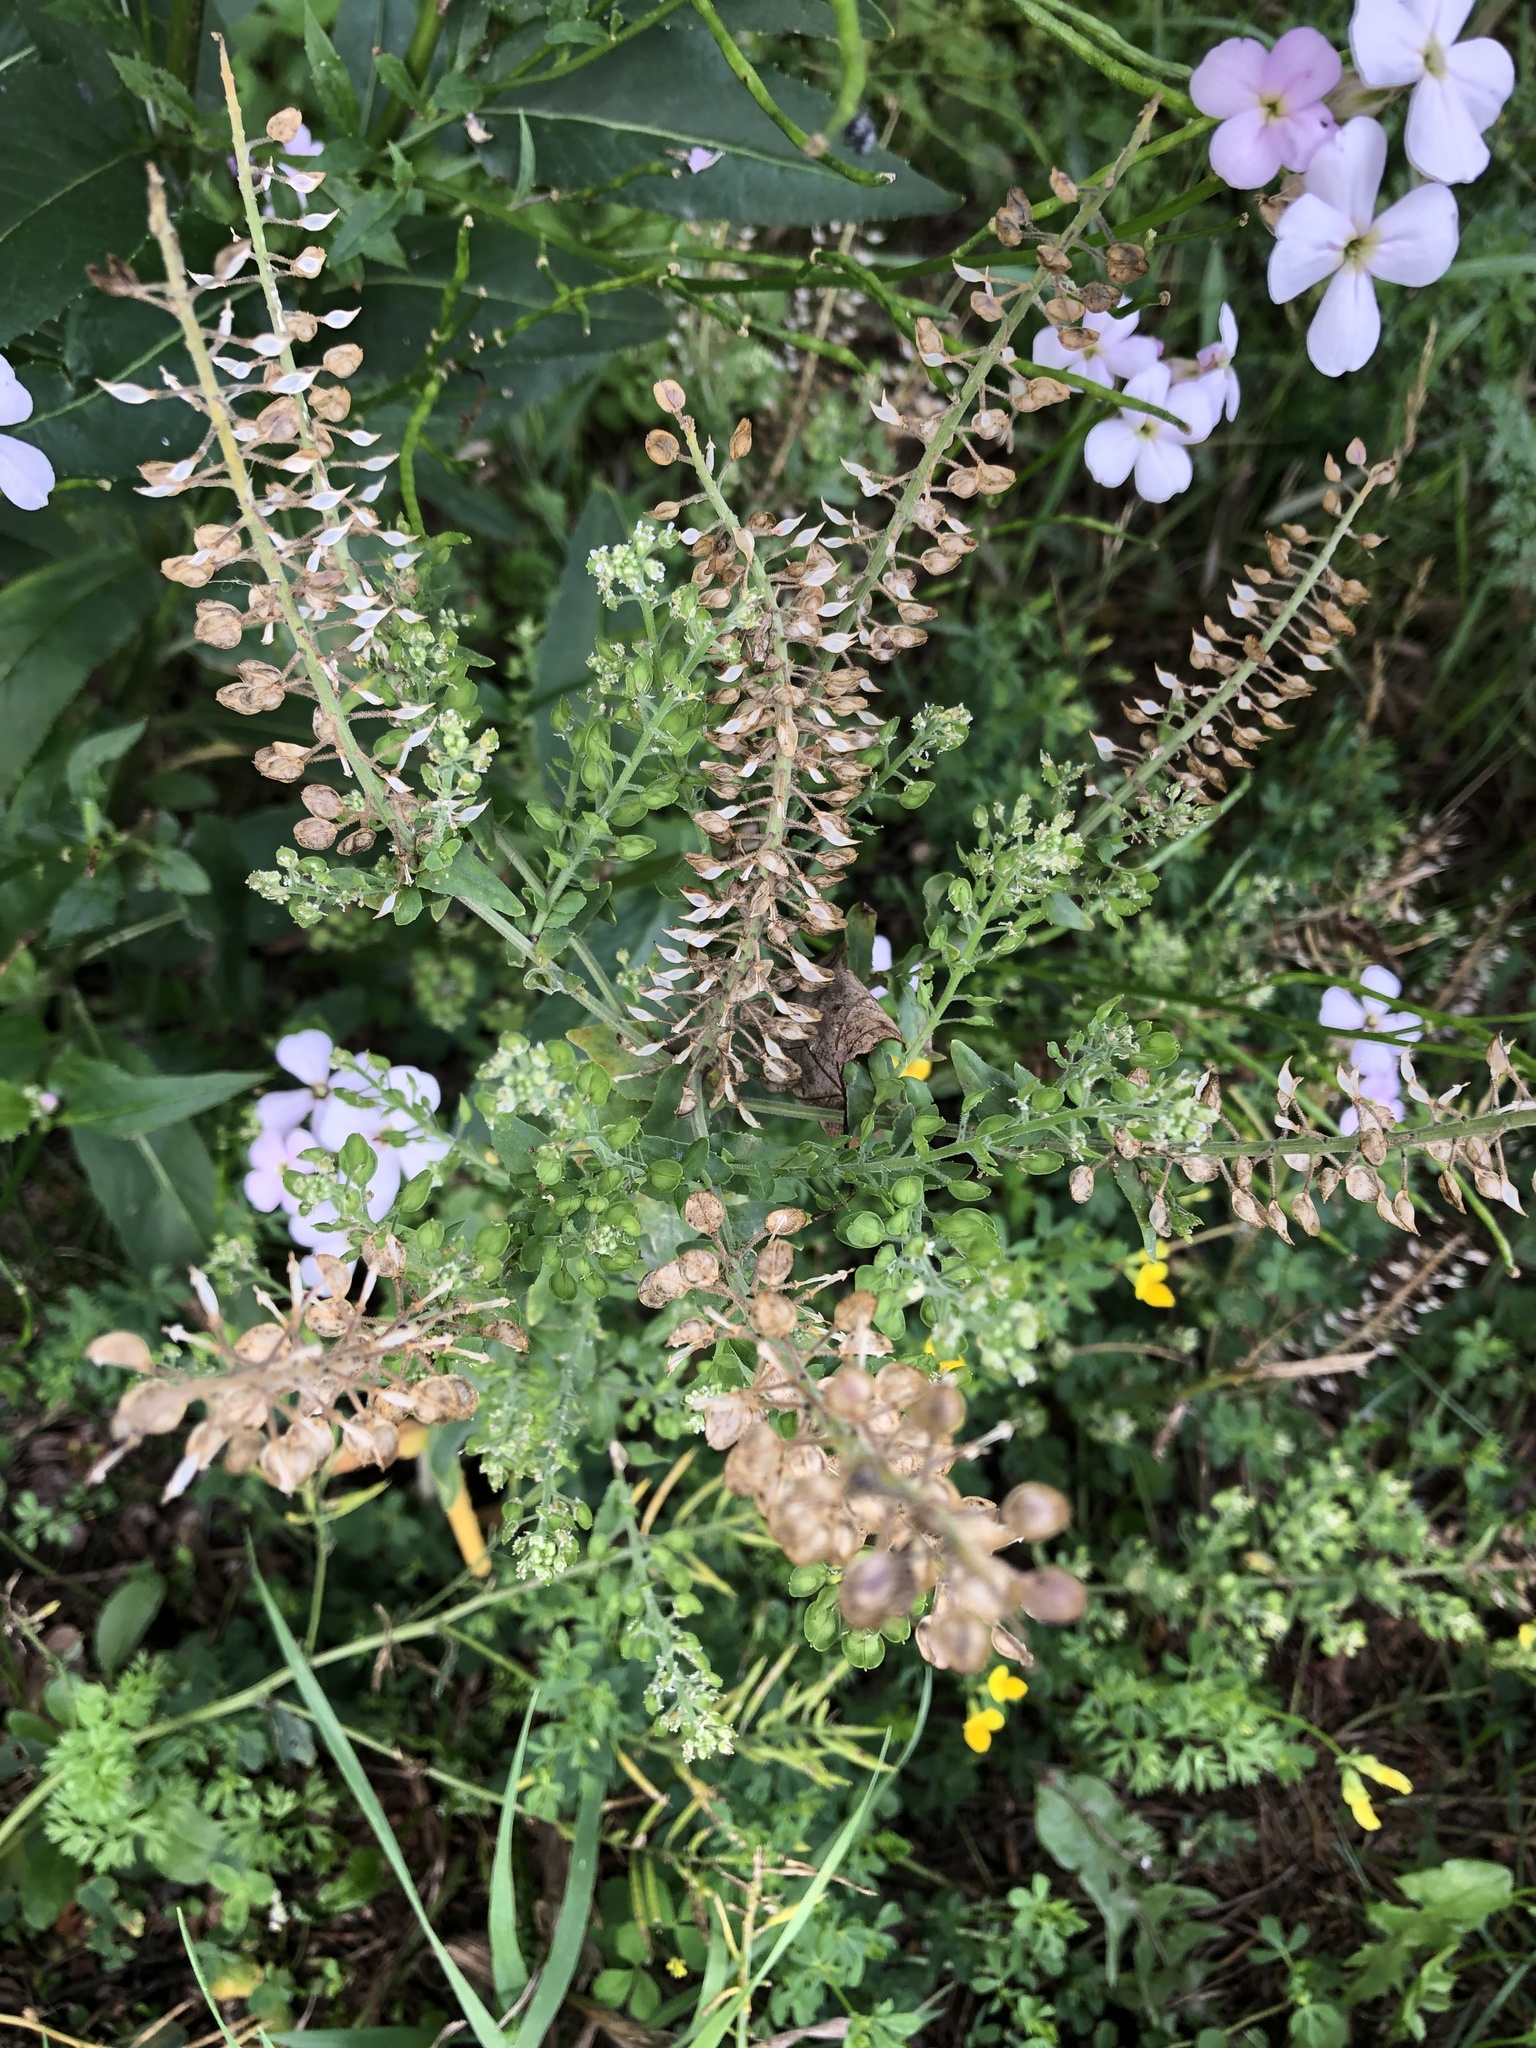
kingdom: Plantae
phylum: Tracheophyta
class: Magnoliopsida
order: Brassicales
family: Brassicaceae
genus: Lepidium
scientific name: Lepidium campestre
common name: Field pepperwort
